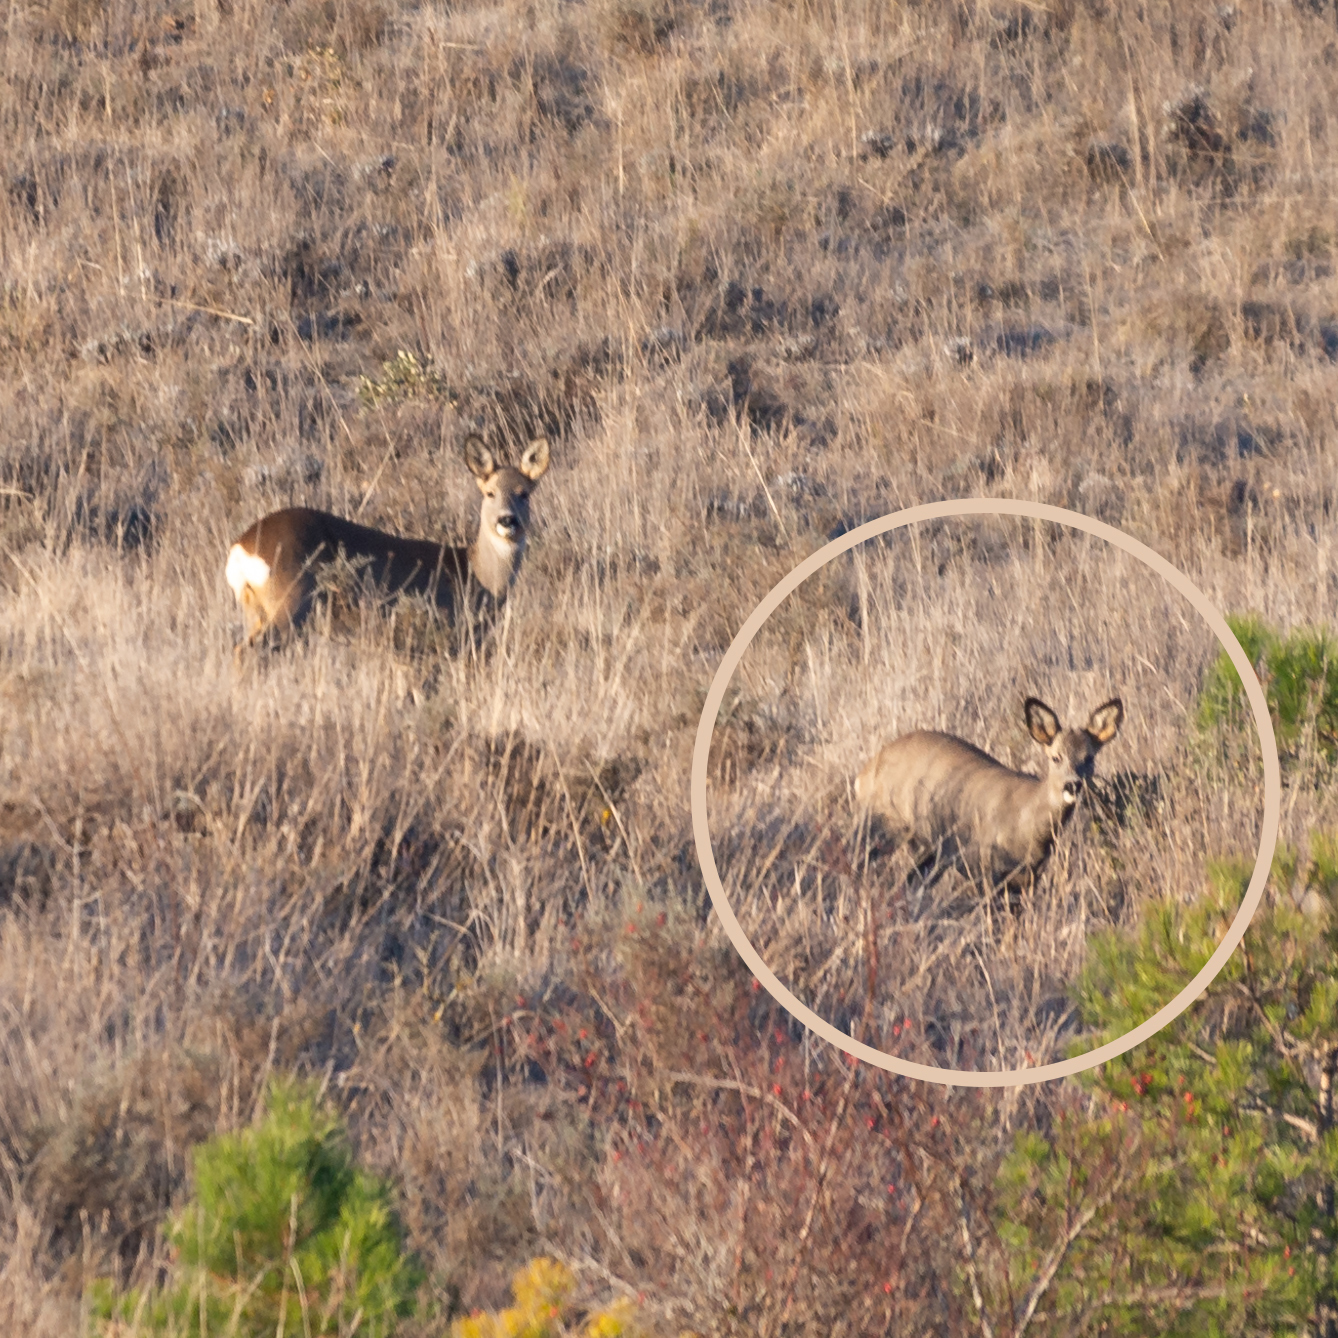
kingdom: Animalia
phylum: Chordata
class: Mammalia
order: Artiodactyla
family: Cervidae
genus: Capreolus
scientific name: Capreolus capreolus
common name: Western roe deer
